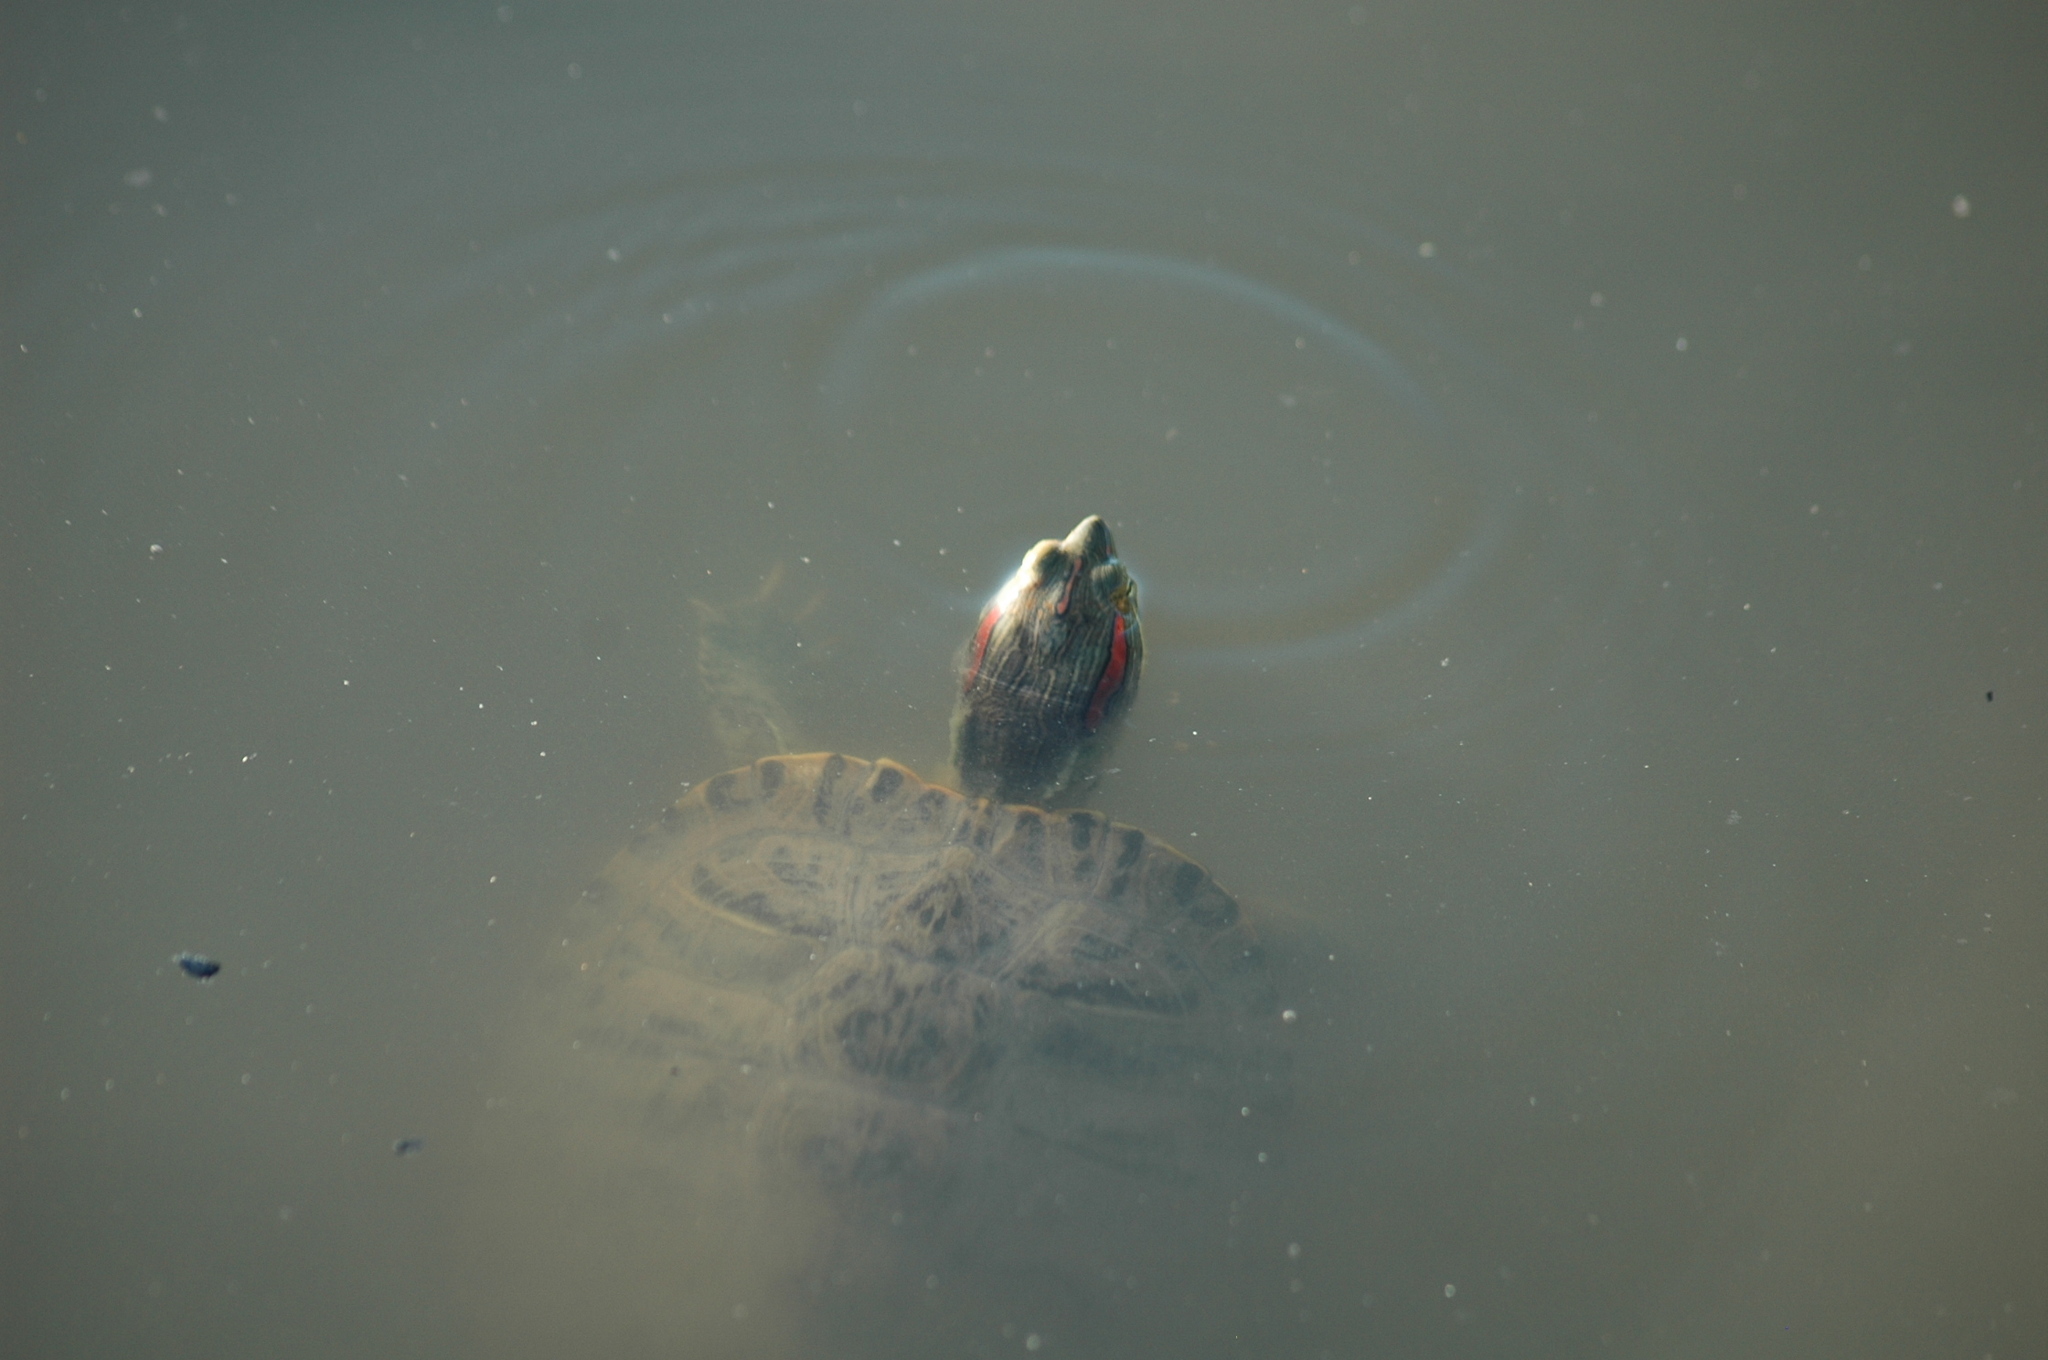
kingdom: Animalia
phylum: Chordata
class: Testudines
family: Emydidae
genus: Trachemys
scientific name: Trachemys scripta
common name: Slider
